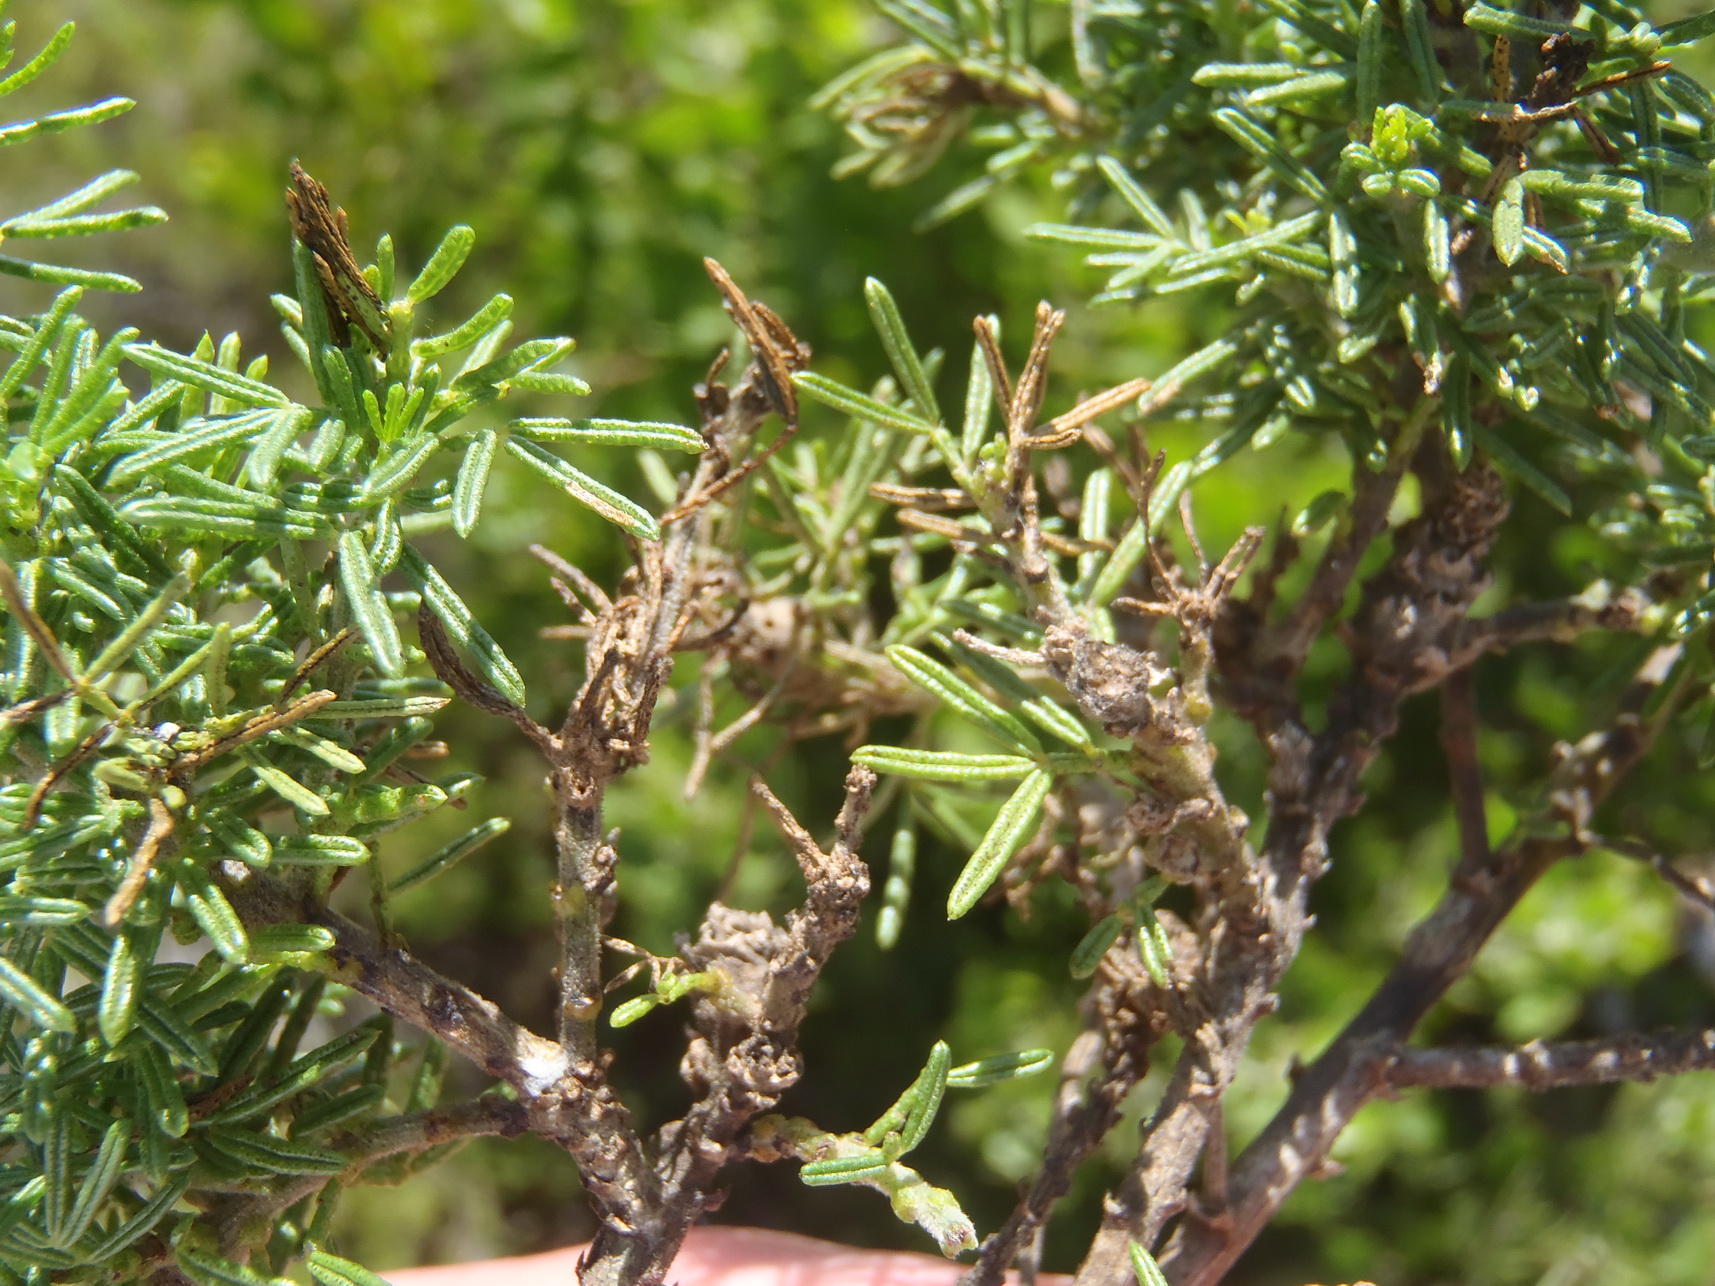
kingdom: Plantae
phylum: Tracheophyta
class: Magnoliopsida
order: Fabales
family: Fabaceae
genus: Psoralea
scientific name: Psoralea vanberkelae
